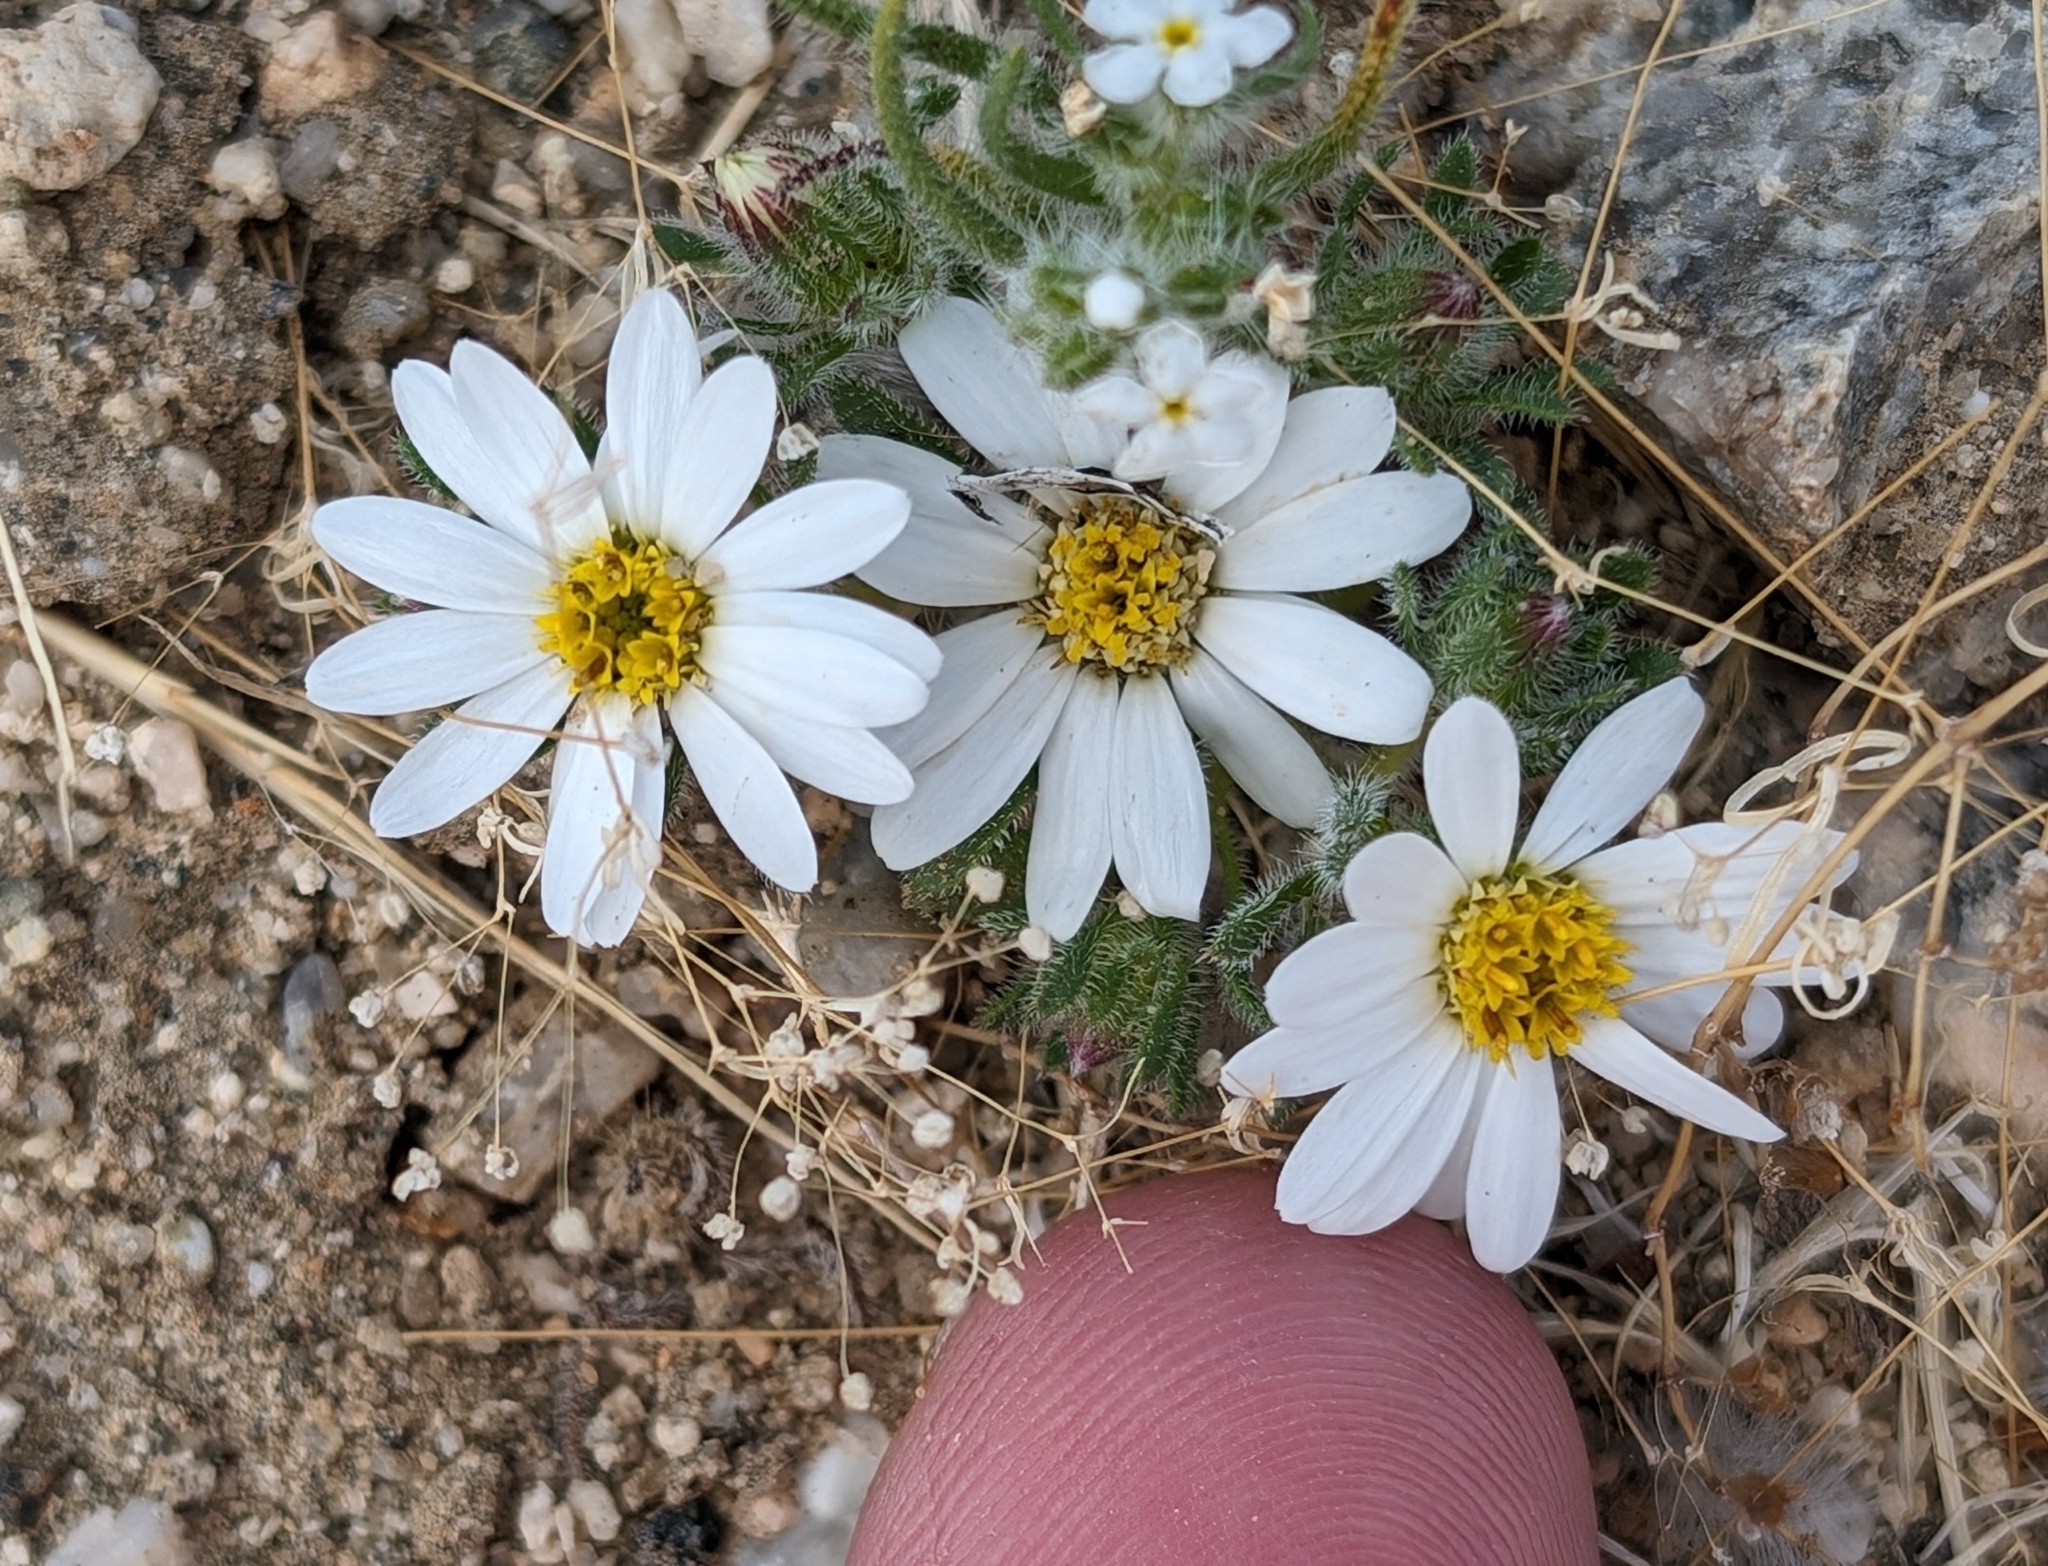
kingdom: Plantae
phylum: Tracheophyta
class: Magnoliopsida
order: Asterales
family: Asteraceae
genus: Monoptilon
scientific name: Monoptilon bellioides
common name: Bristly desertstar
